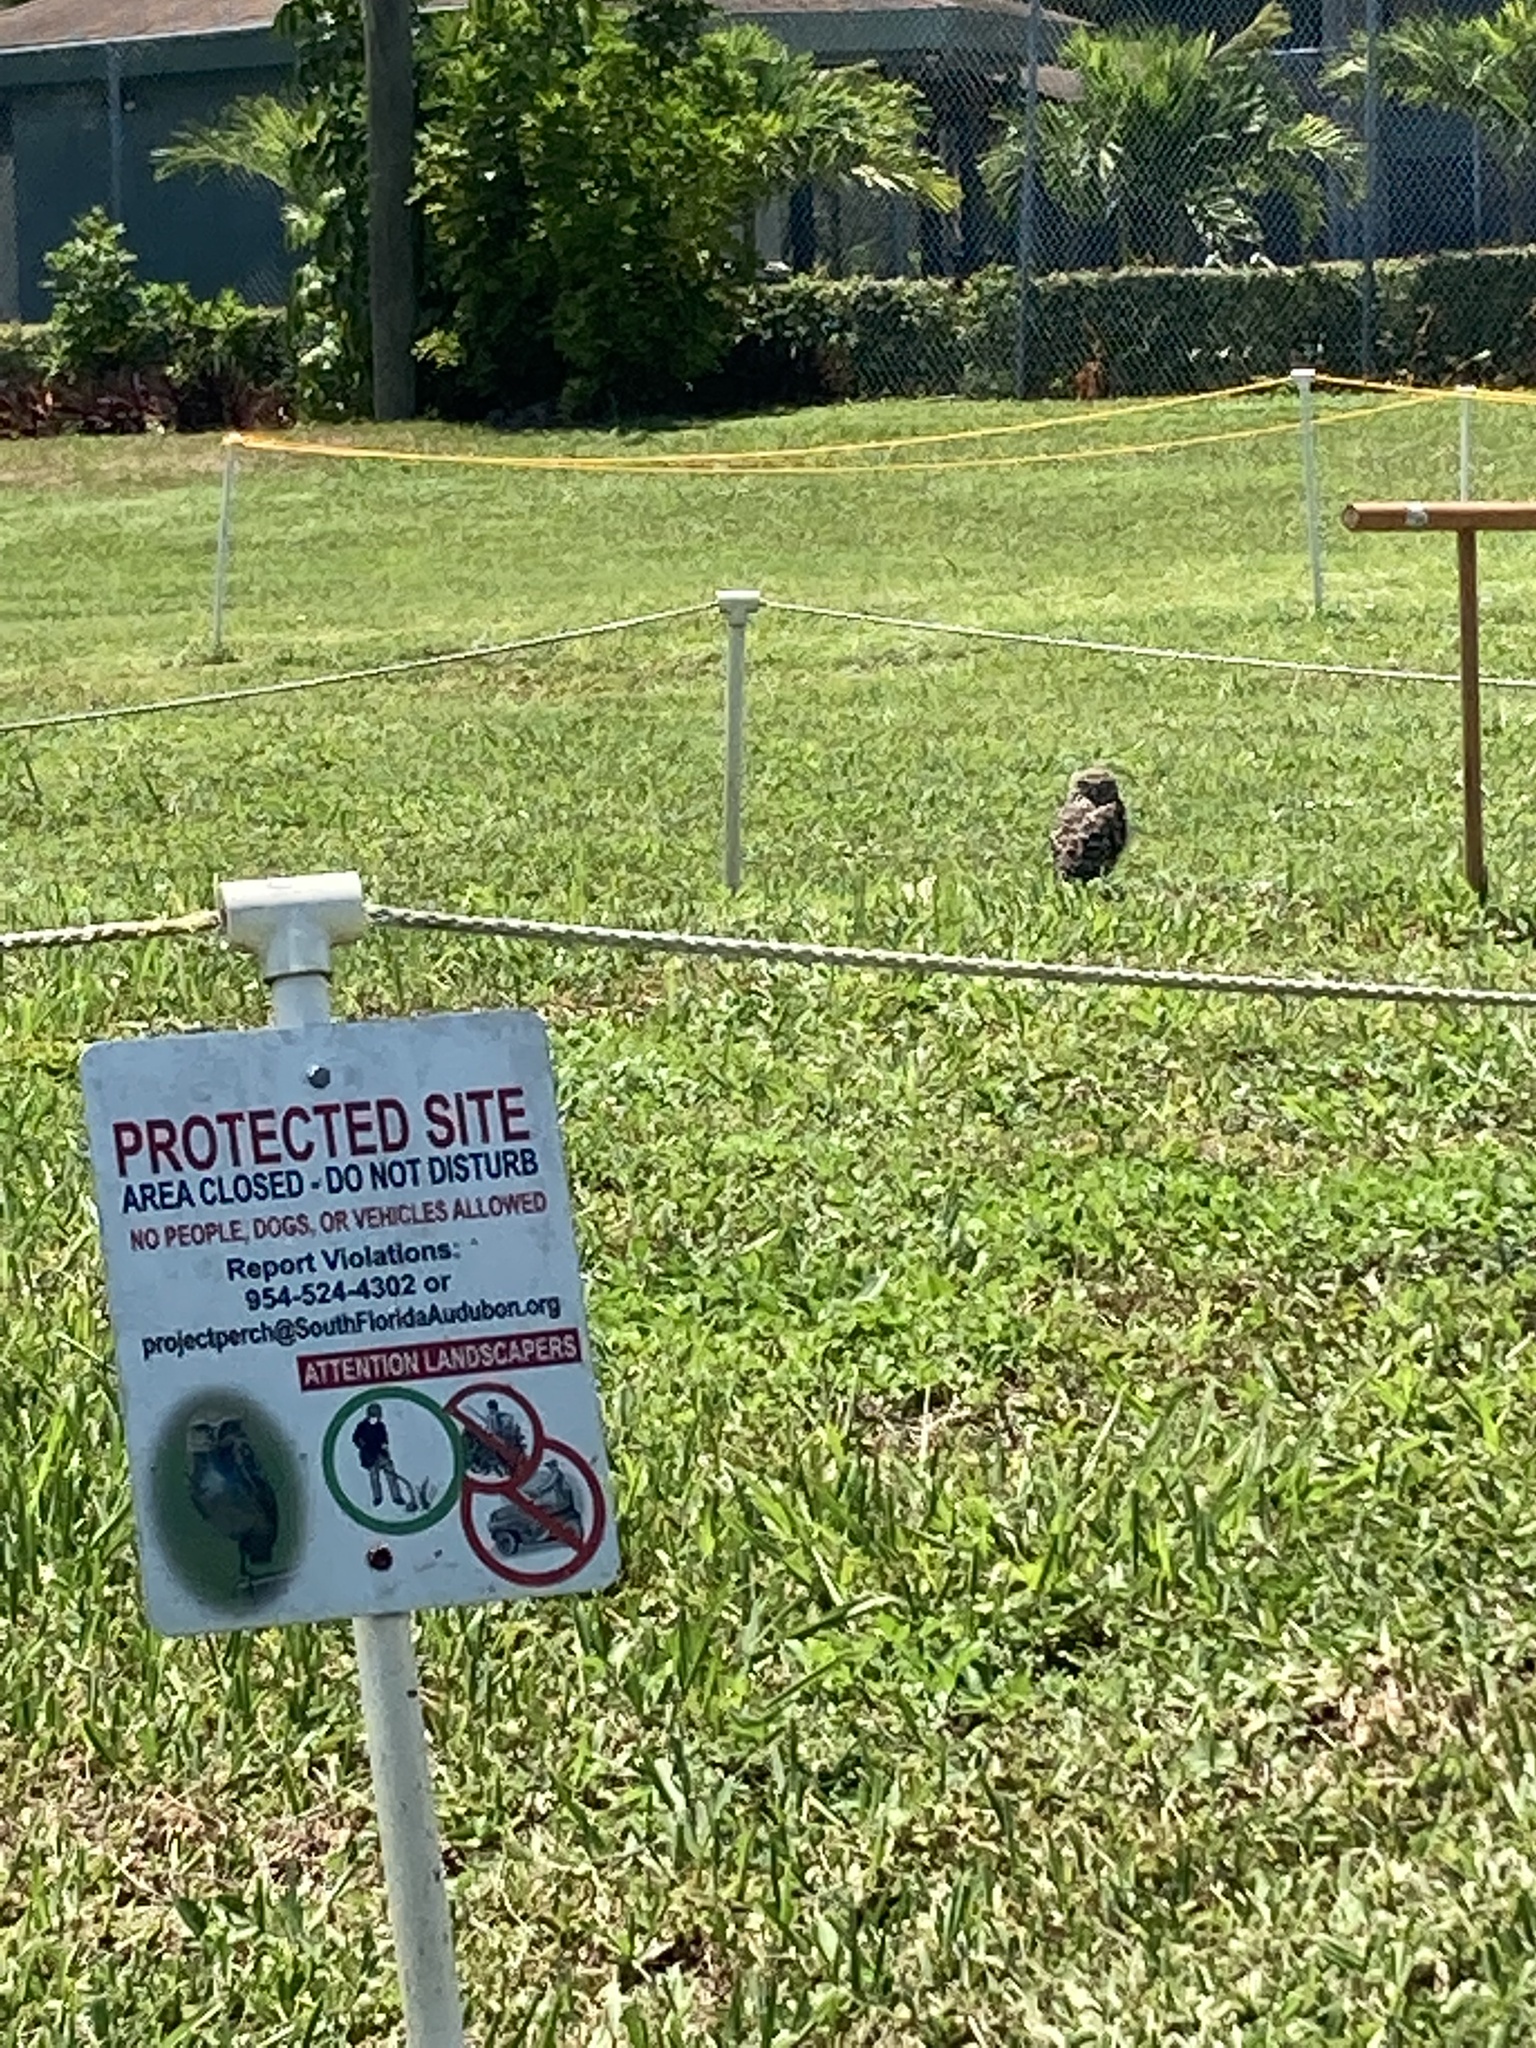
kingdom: Animalia
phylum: Chordata
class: Aves
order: Strigiformes
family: Strigidae
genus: Athene
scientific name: Athene cunicularia
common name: Burrowing owl
